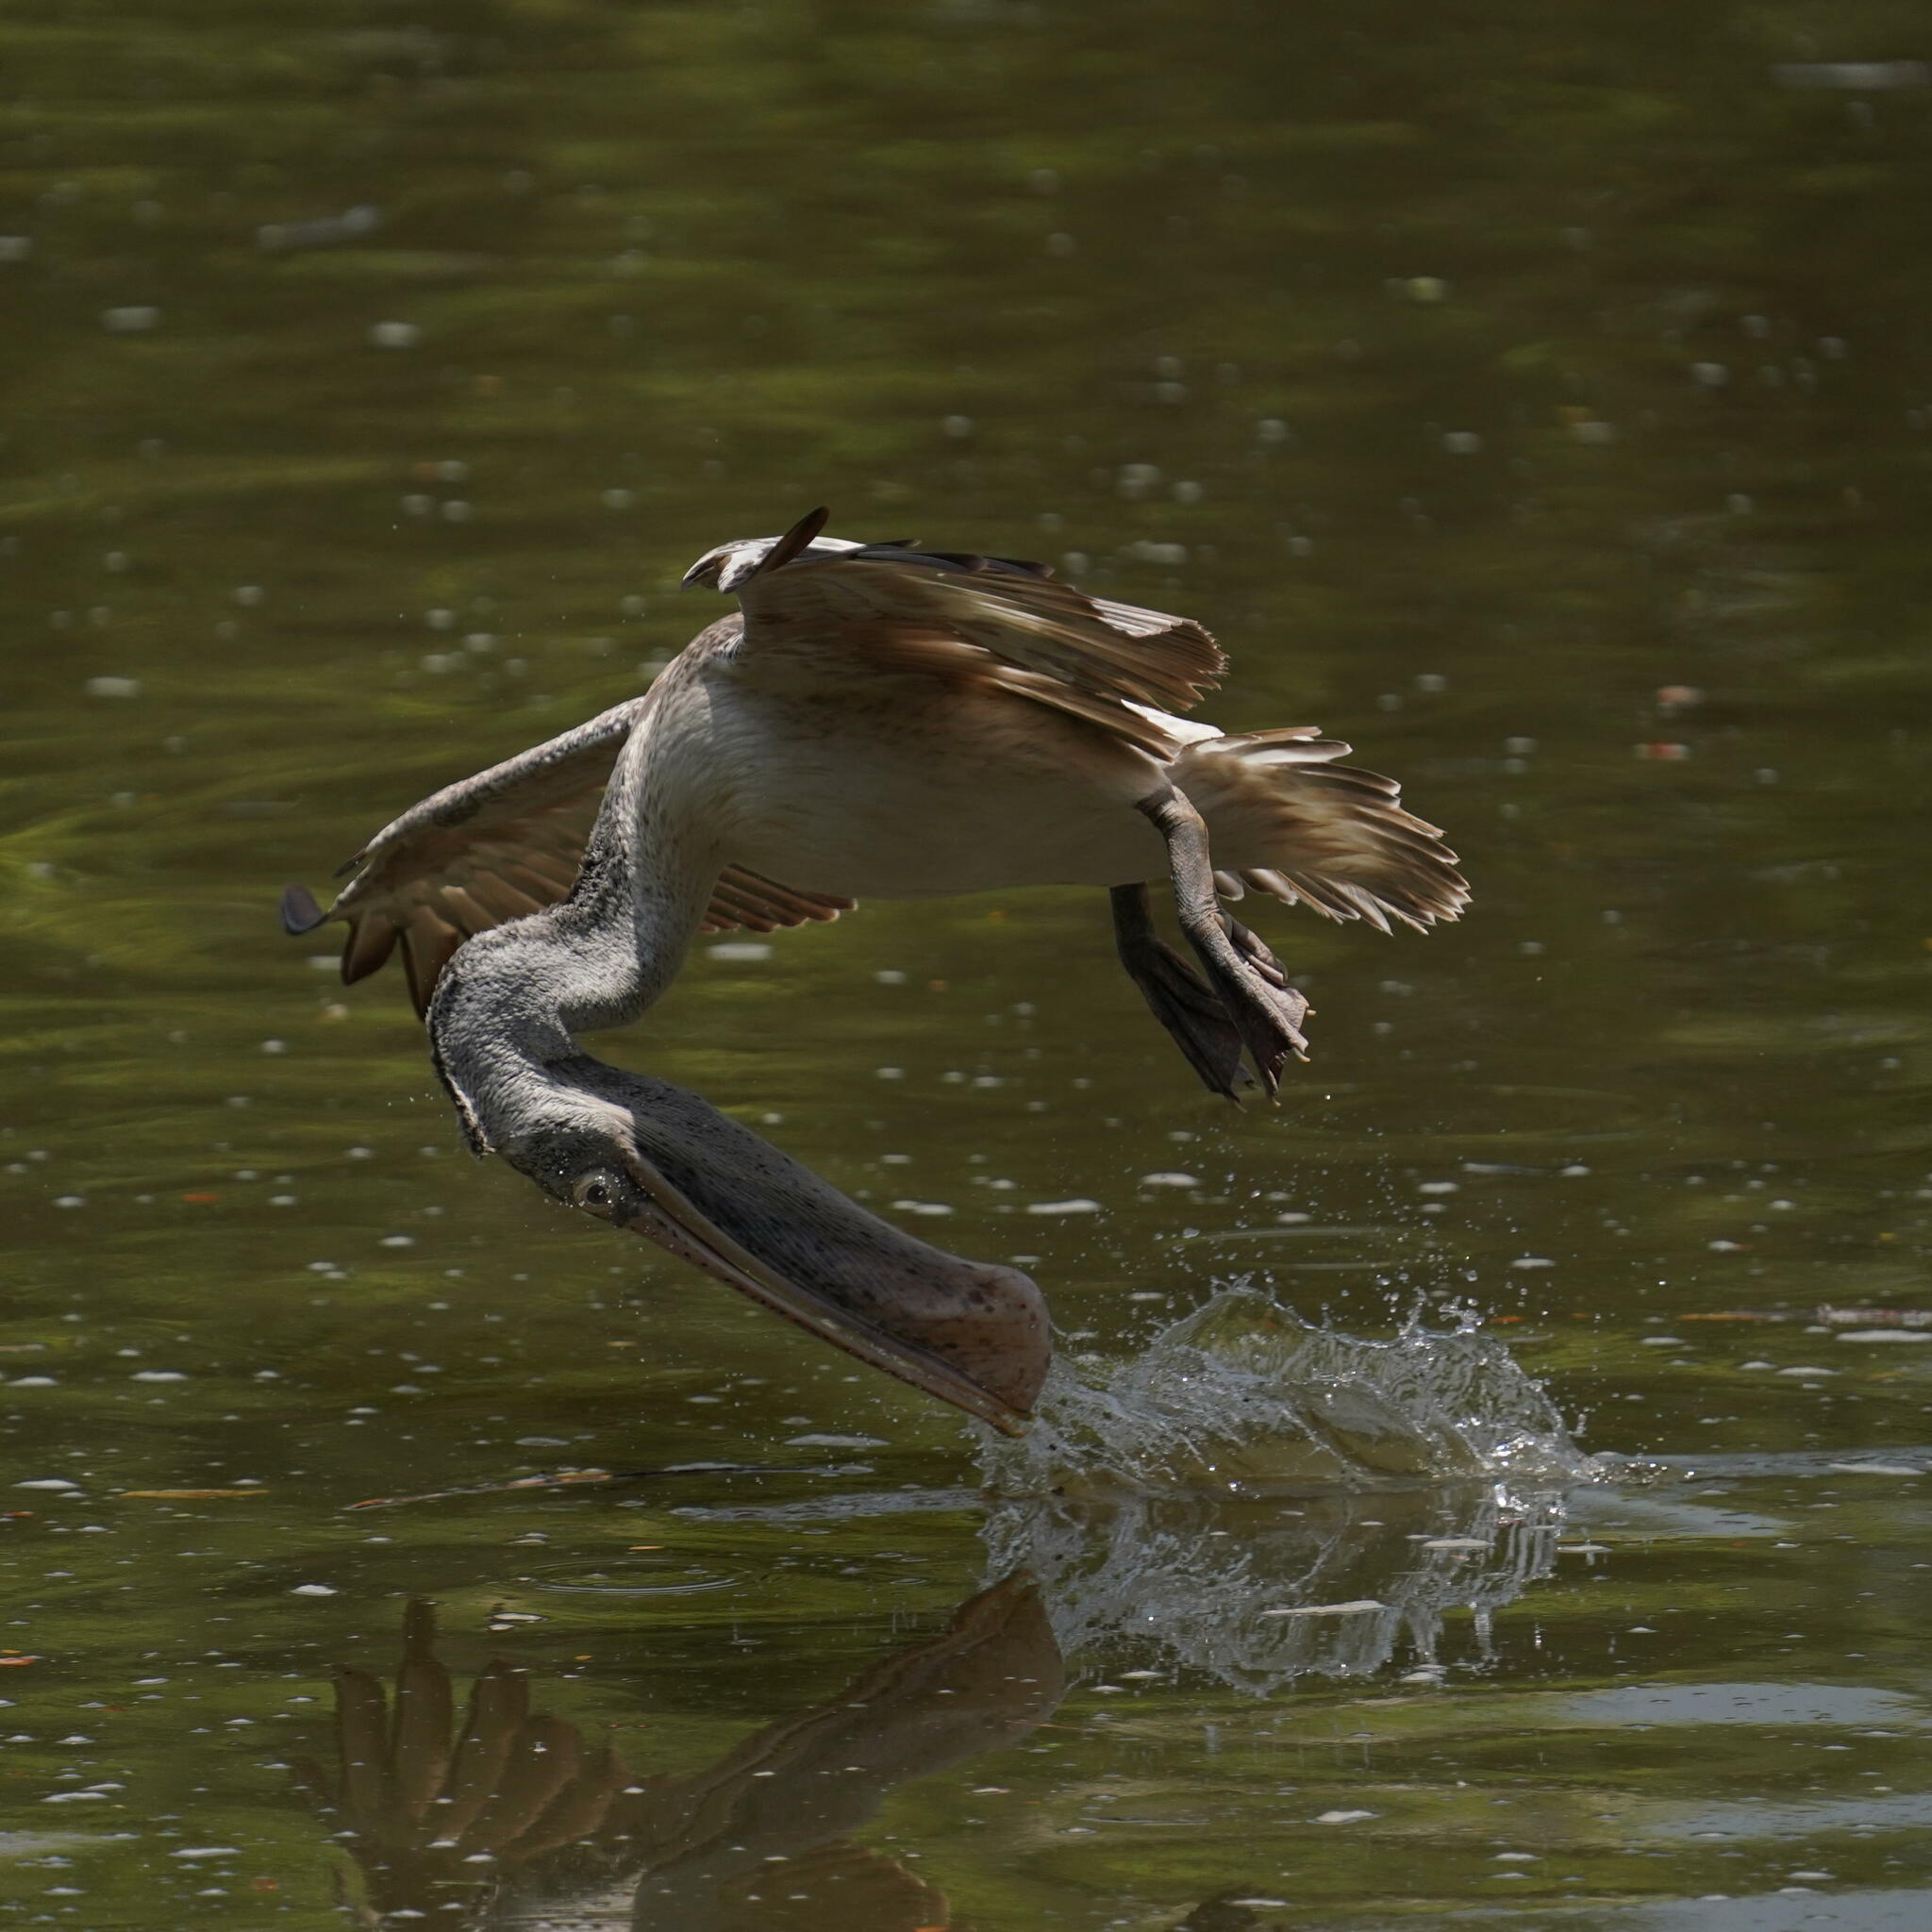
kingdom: Animalia
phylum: Chordata
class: Aves
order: Pelecaniformes
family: Pelecanidae
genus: Pelecanus
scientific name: Pelecanus philippensis
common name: Spot-billed pelican
